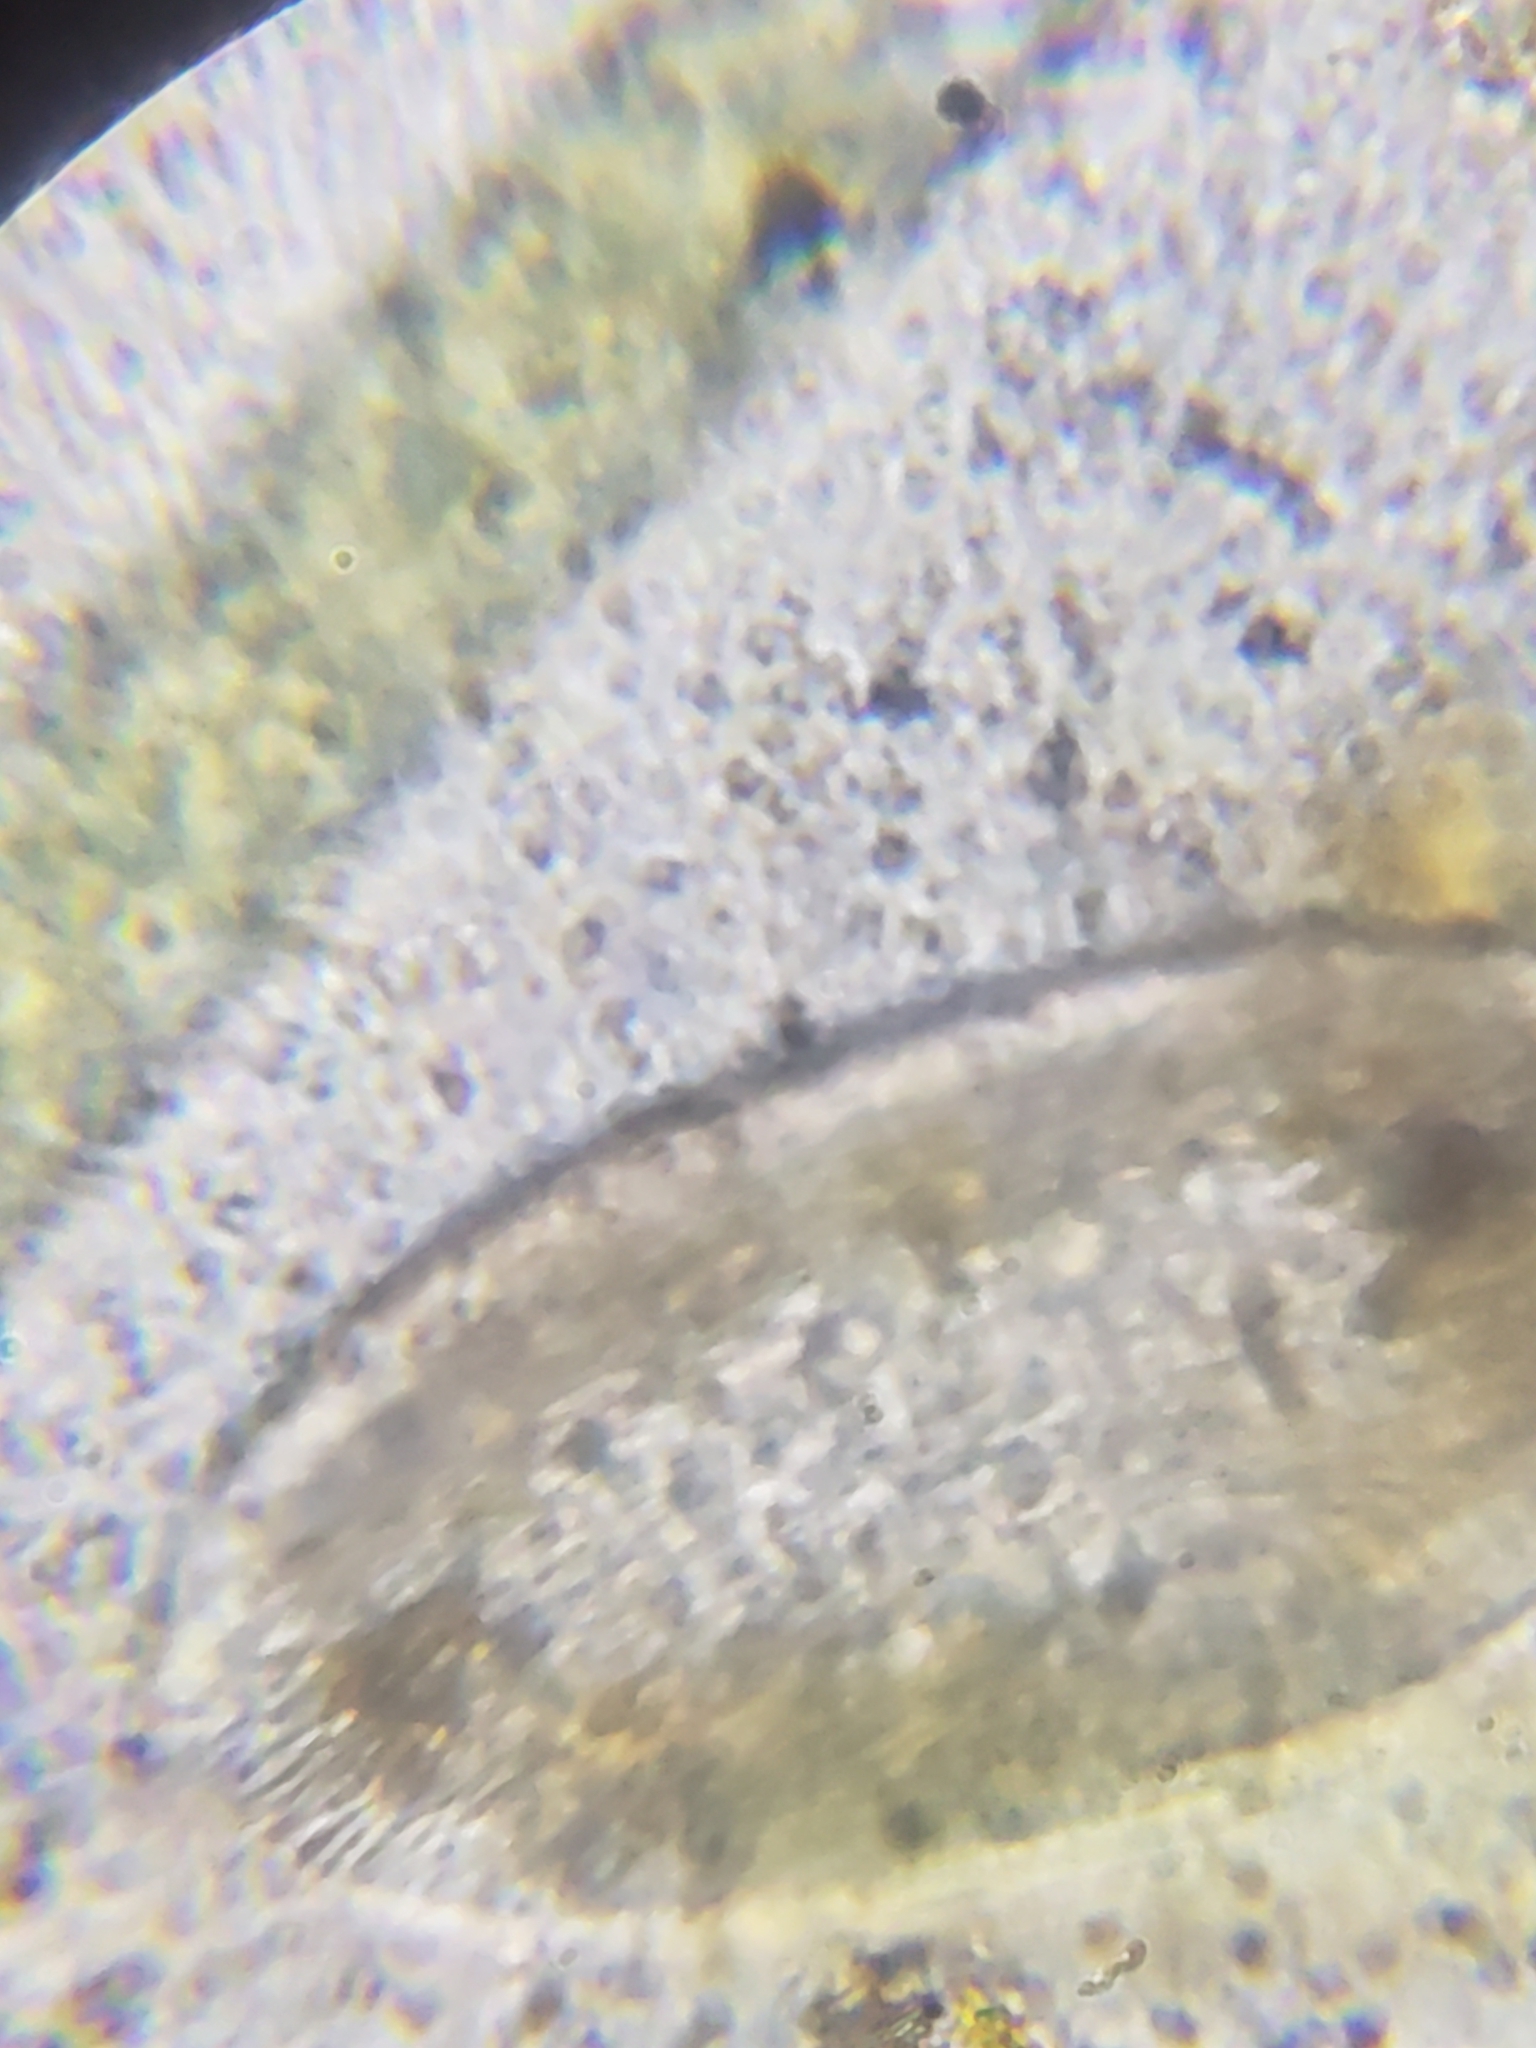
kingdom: Chromista
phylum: Ciliophora
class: Oligohymenophorea
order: Hymenostomatida
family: Frontoniidae
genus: Frontonia
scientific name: Frontonia acuminata
